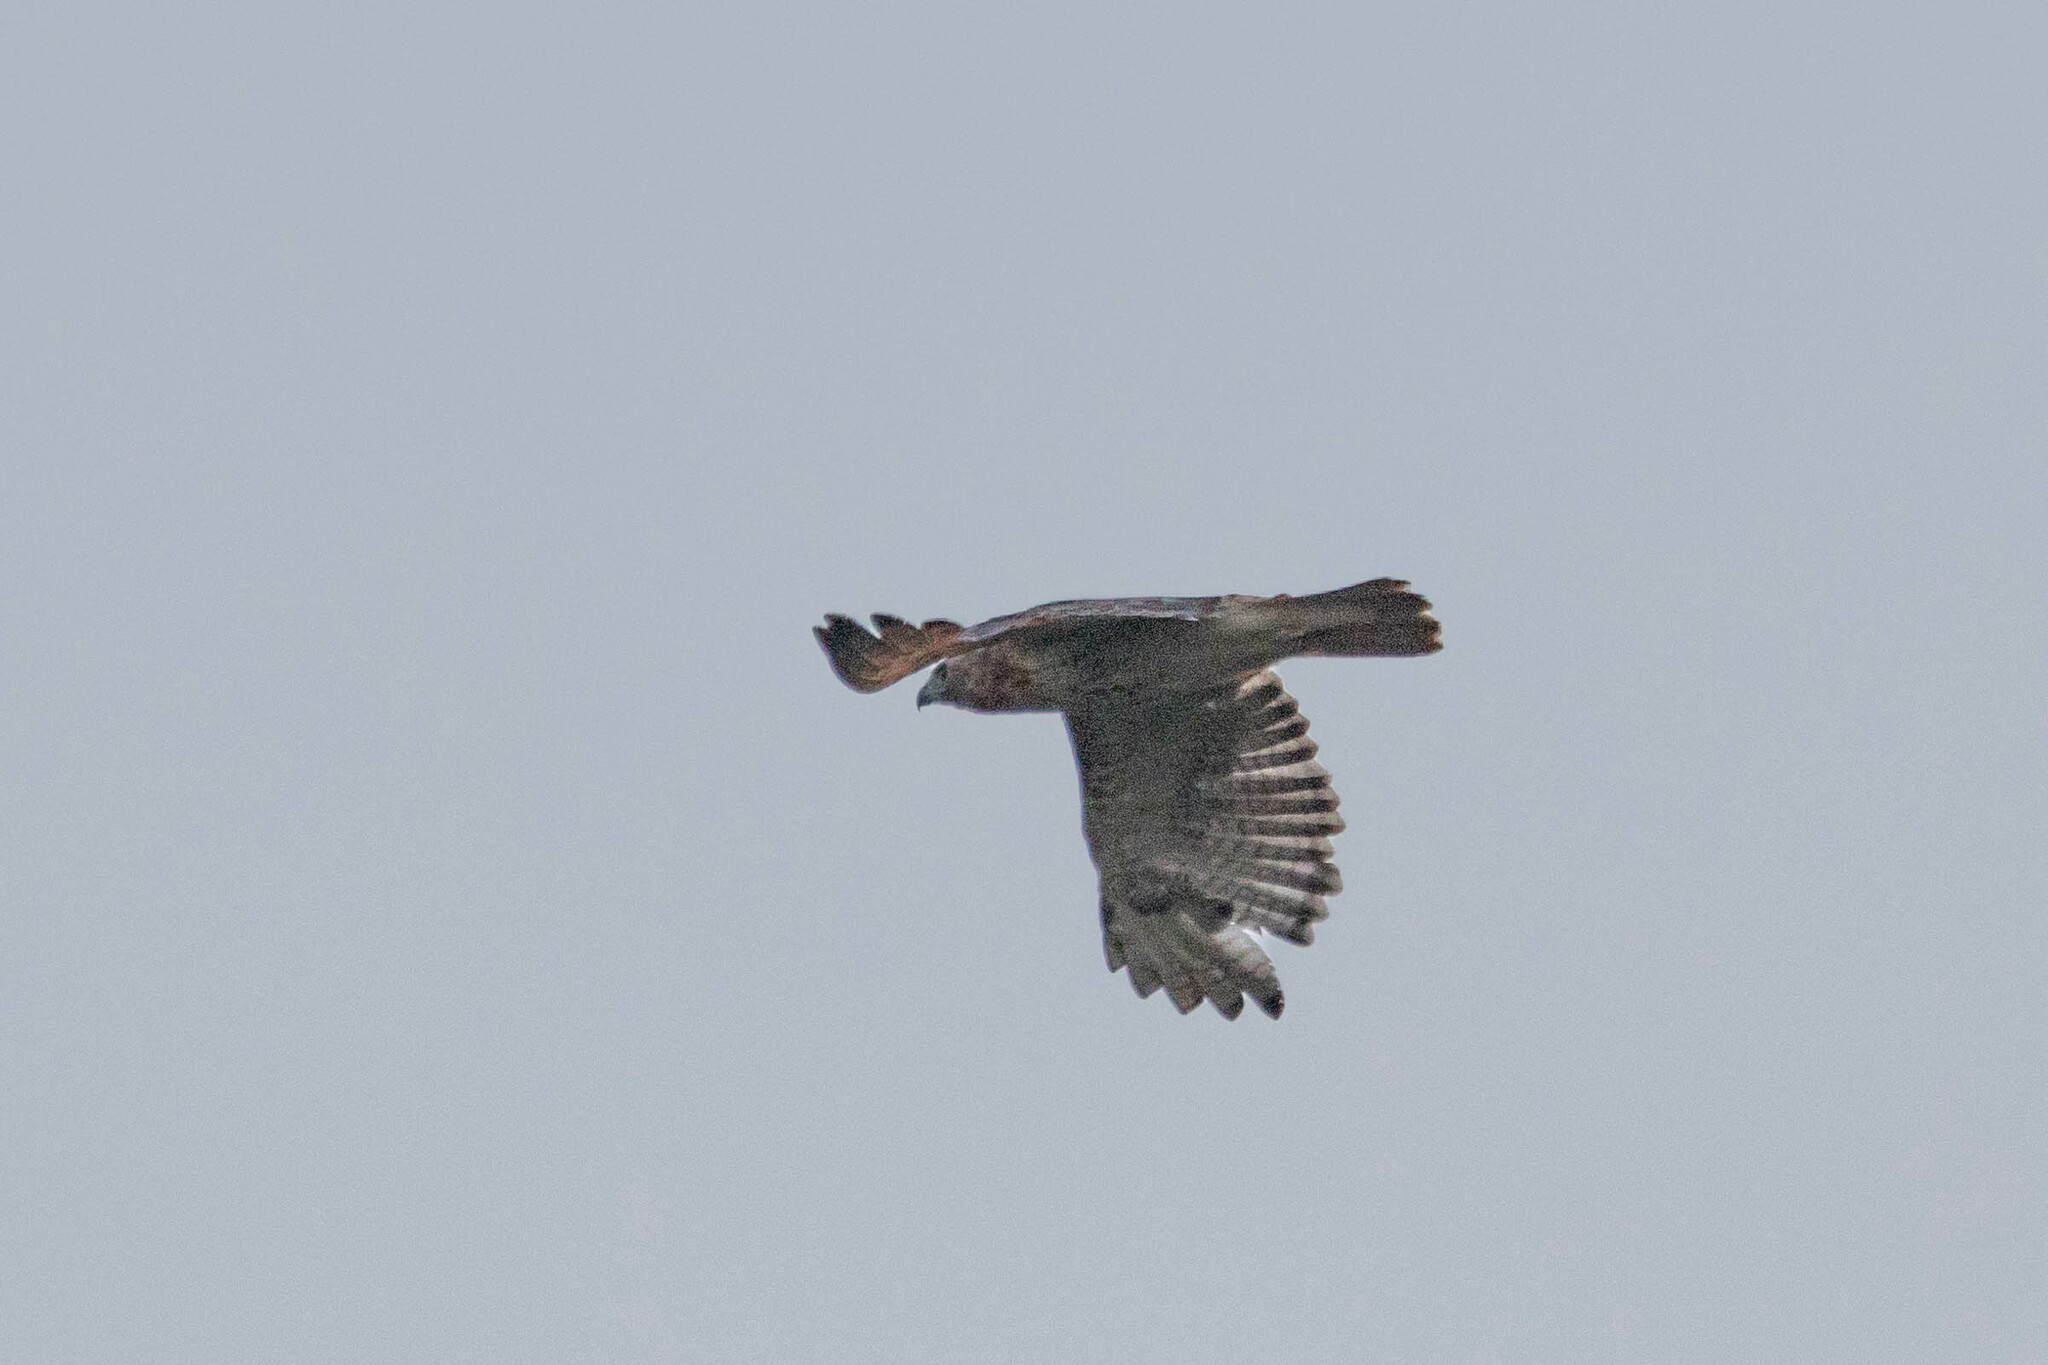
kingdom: Animalia
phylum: Chordata
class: Aves
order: Accipitriformes
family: Accipitridae
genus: Buteo
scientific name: Buteo jamaicensis
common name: Red-tailed hawk
